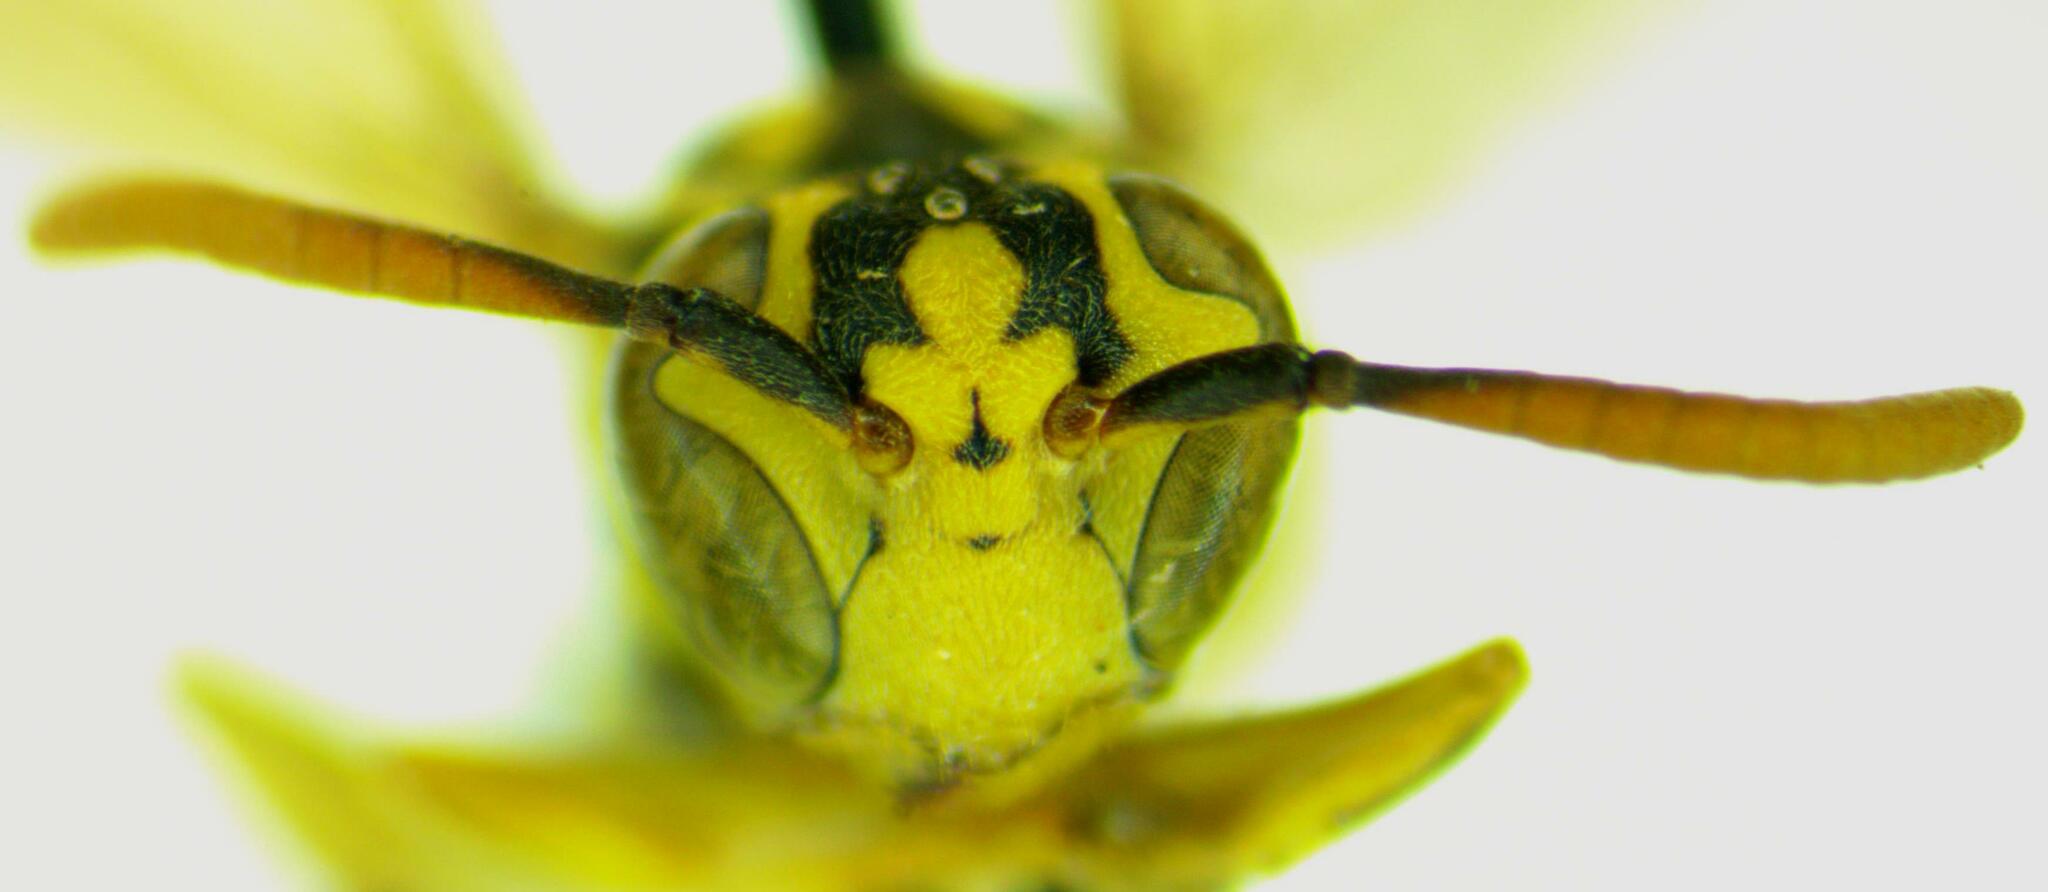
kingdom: Animalia
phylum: Arthropoda
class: Insecta
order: Hymenoptera
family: Vespidae
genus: Mischocyttarus
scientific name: Mischocyttarus basimacula
